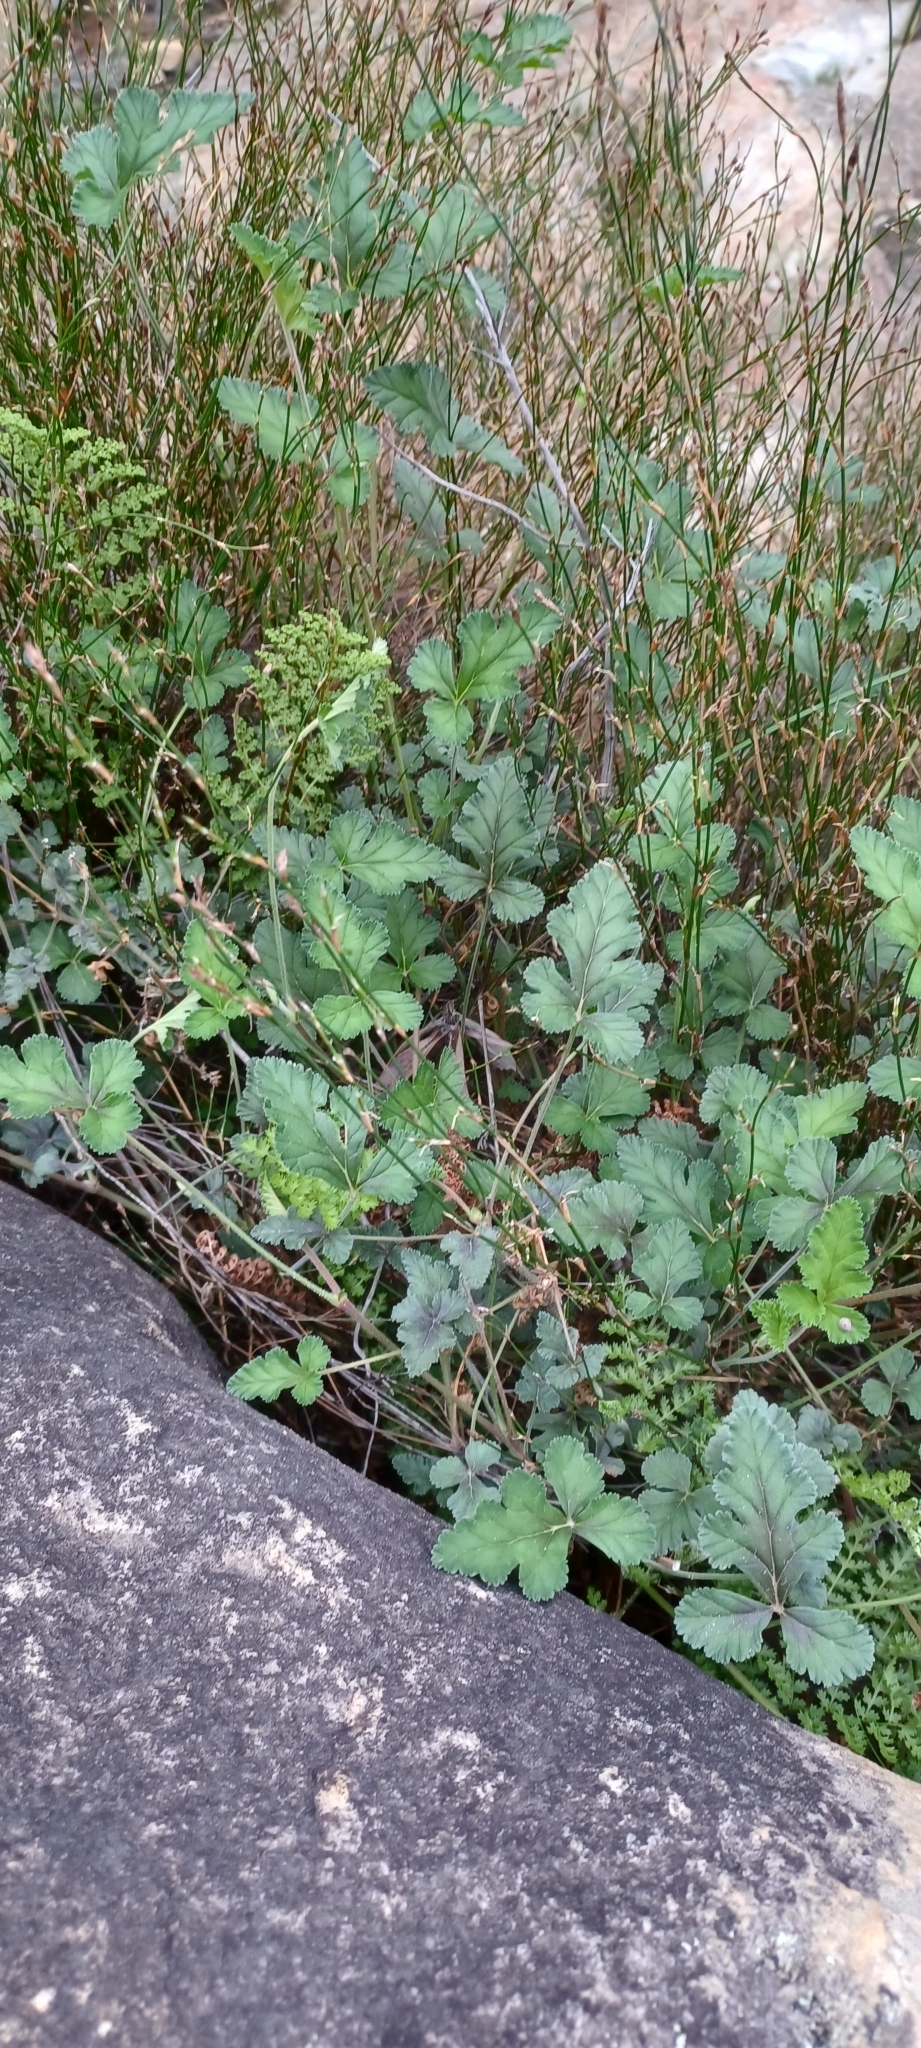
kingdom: Plantae
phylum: Tracheophyta
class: Magnoliopsida
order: Geraniales
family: Geraniaceae
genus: Pelargonium
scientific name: Pelargonium candicans
